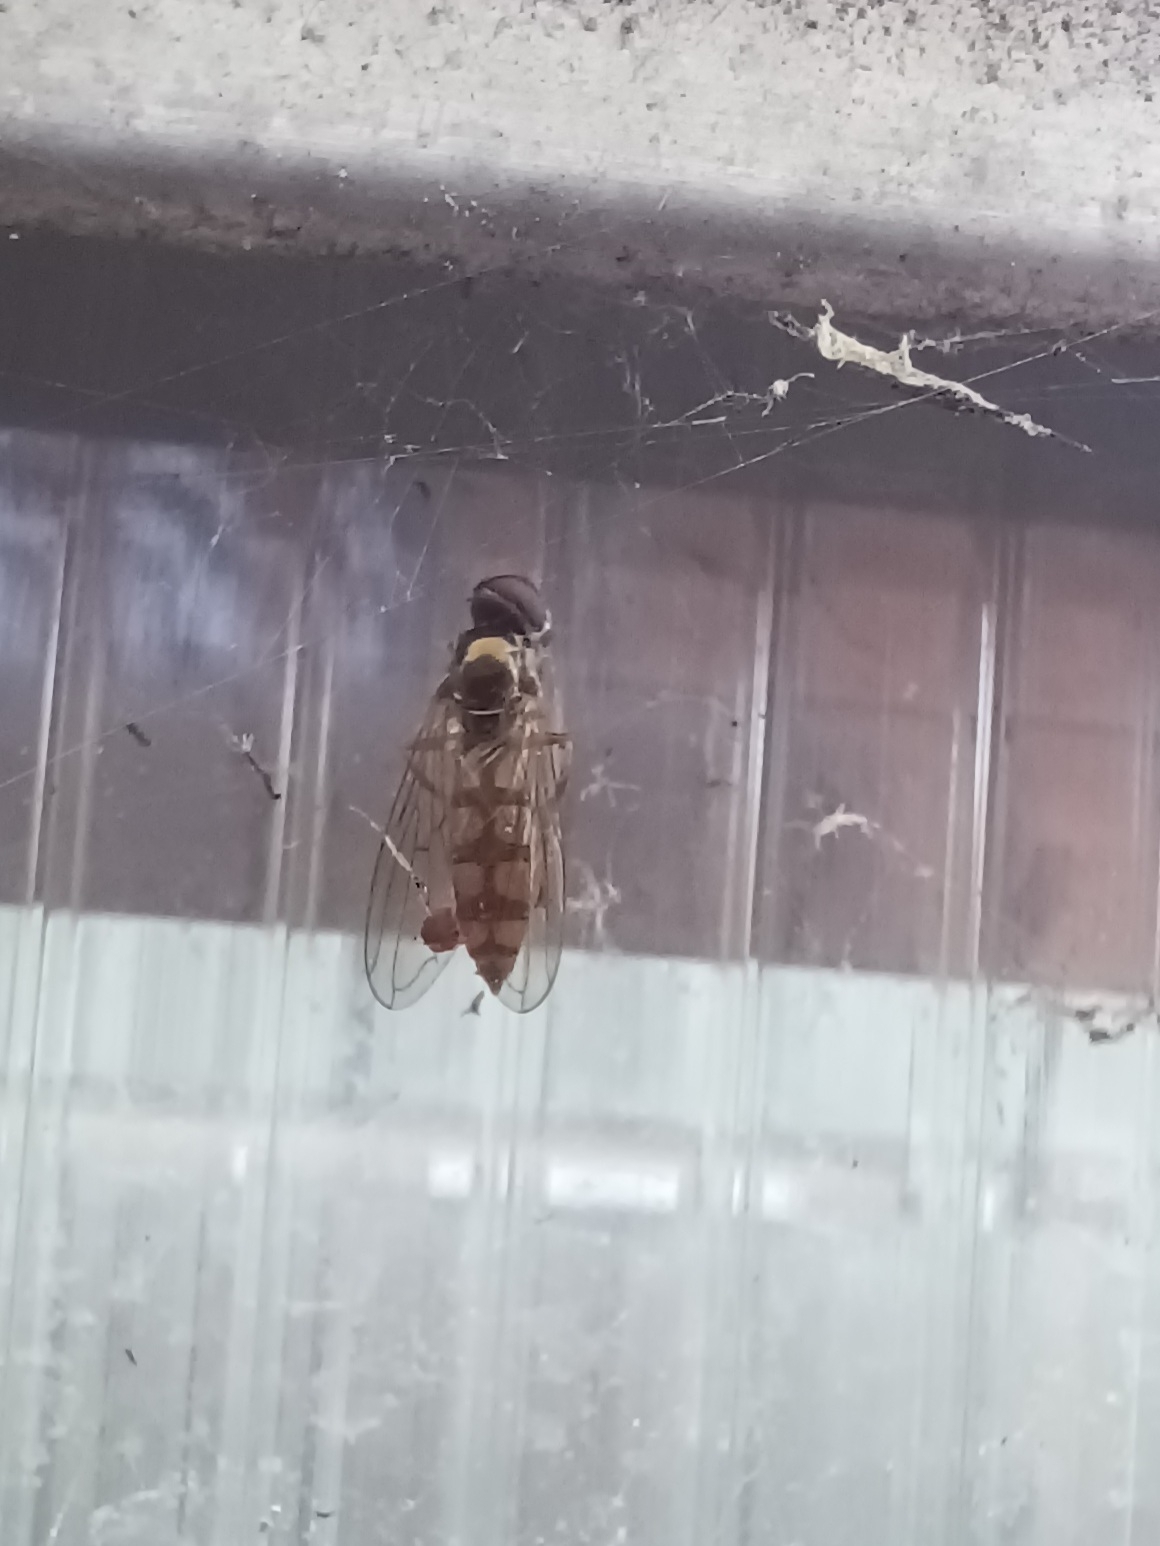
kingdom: Animalia
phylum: Arthropoda
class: Insecta
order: Diptera
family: Syrphidae
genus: Platycheirus
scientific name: Platycheirus
